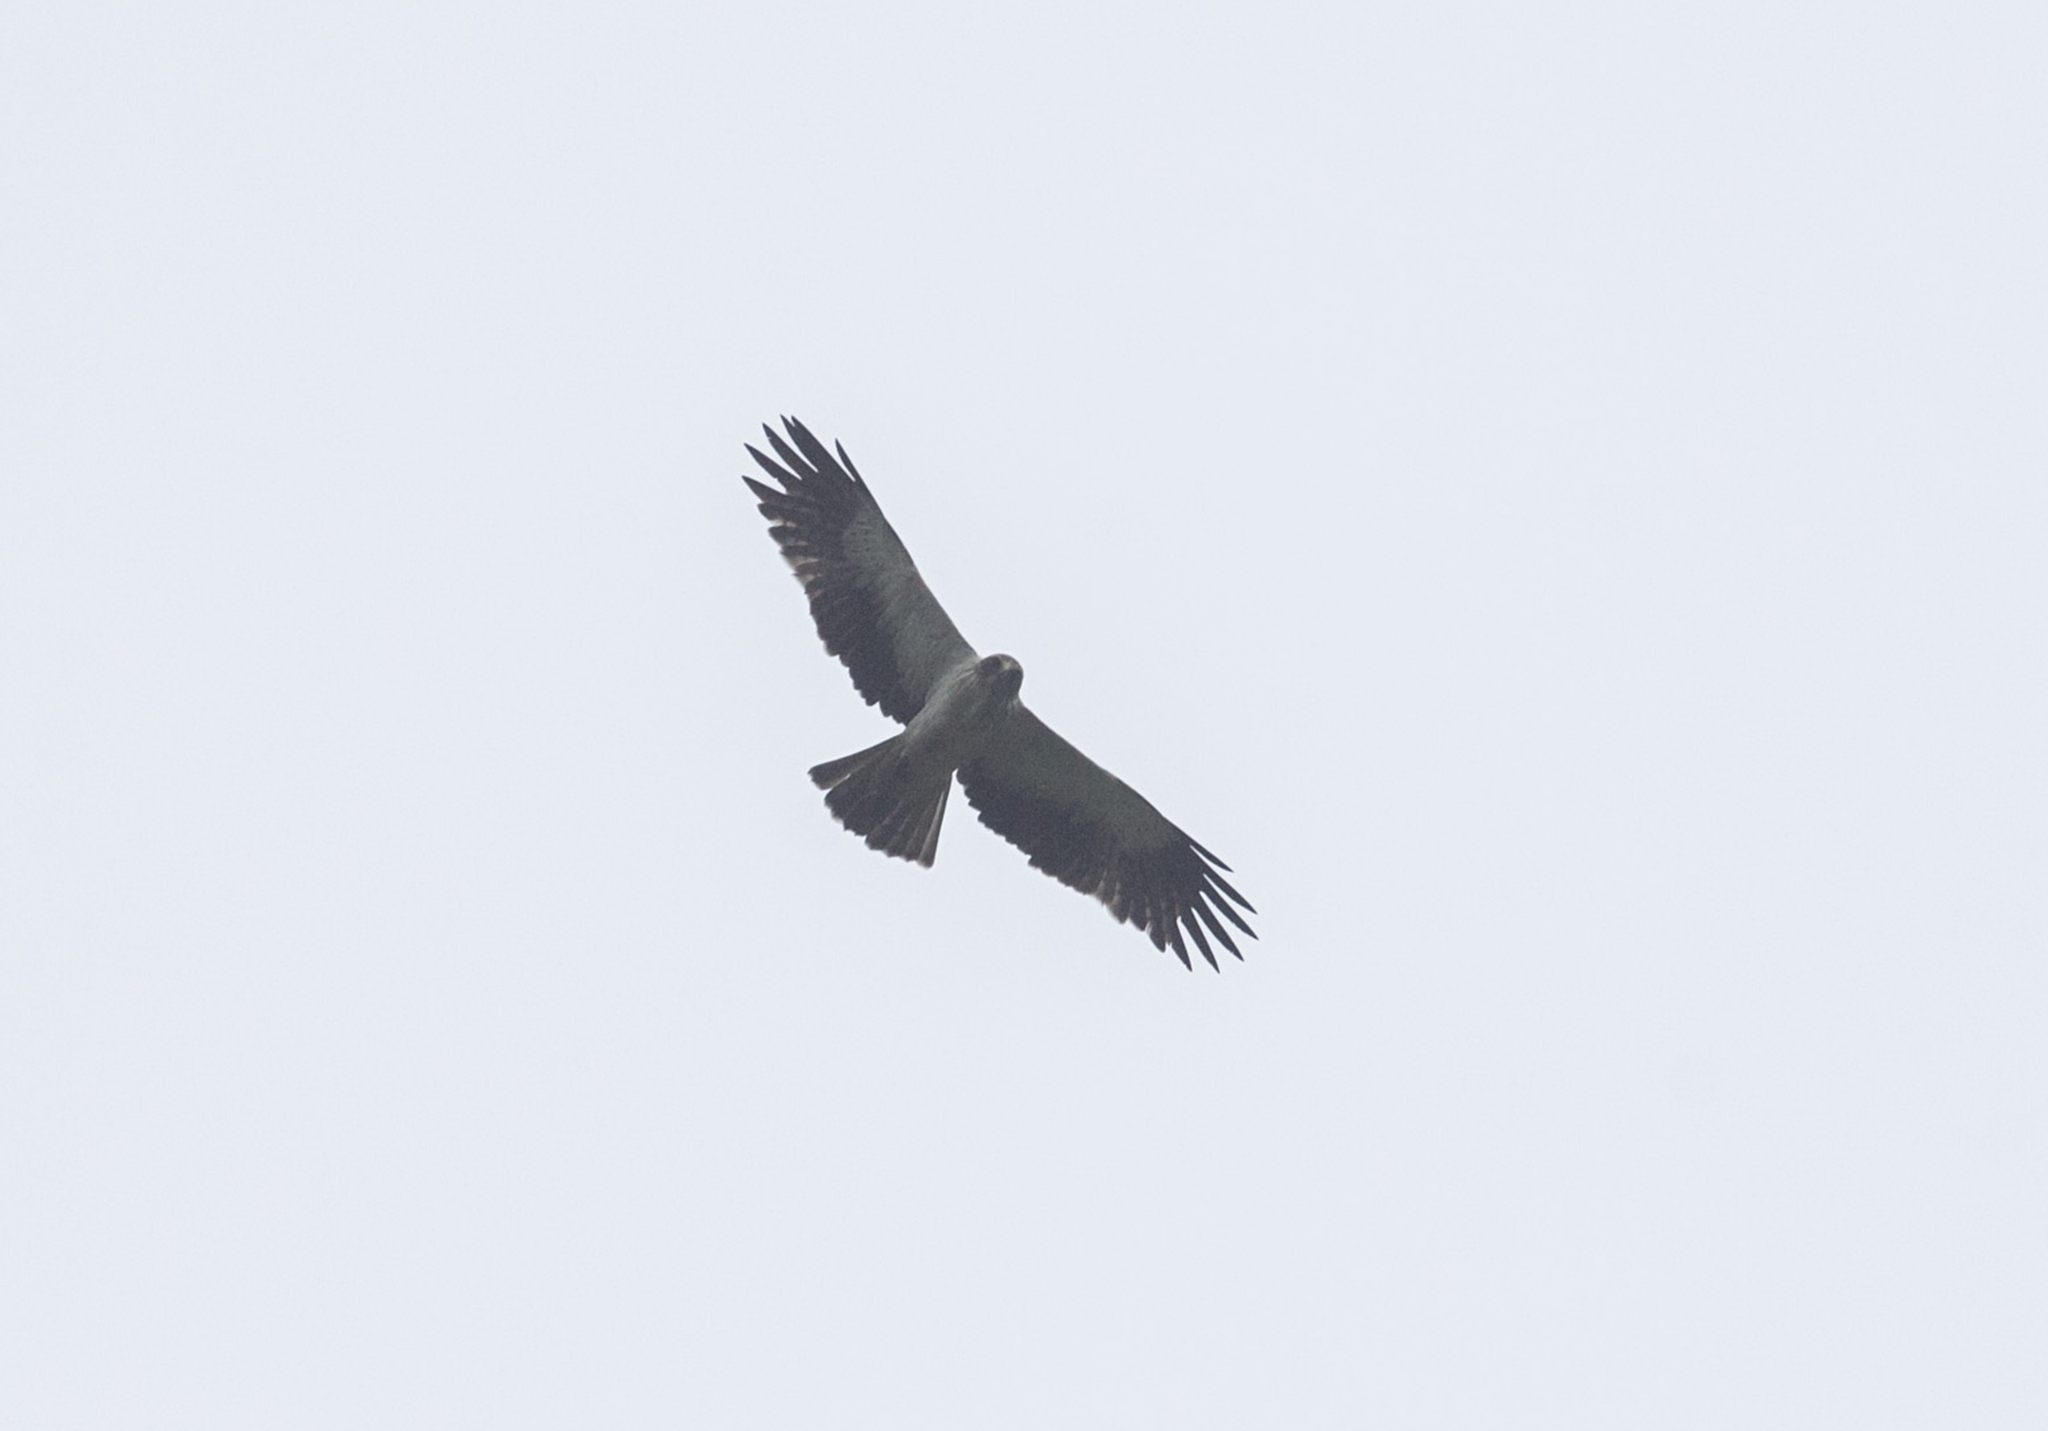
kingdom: Animalia
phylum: Chordata
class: Aves
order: Accipitriformes
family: Accipitridae
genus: Hieraaetus
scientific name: Hieraaetus pennatus
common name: Booted eagle
